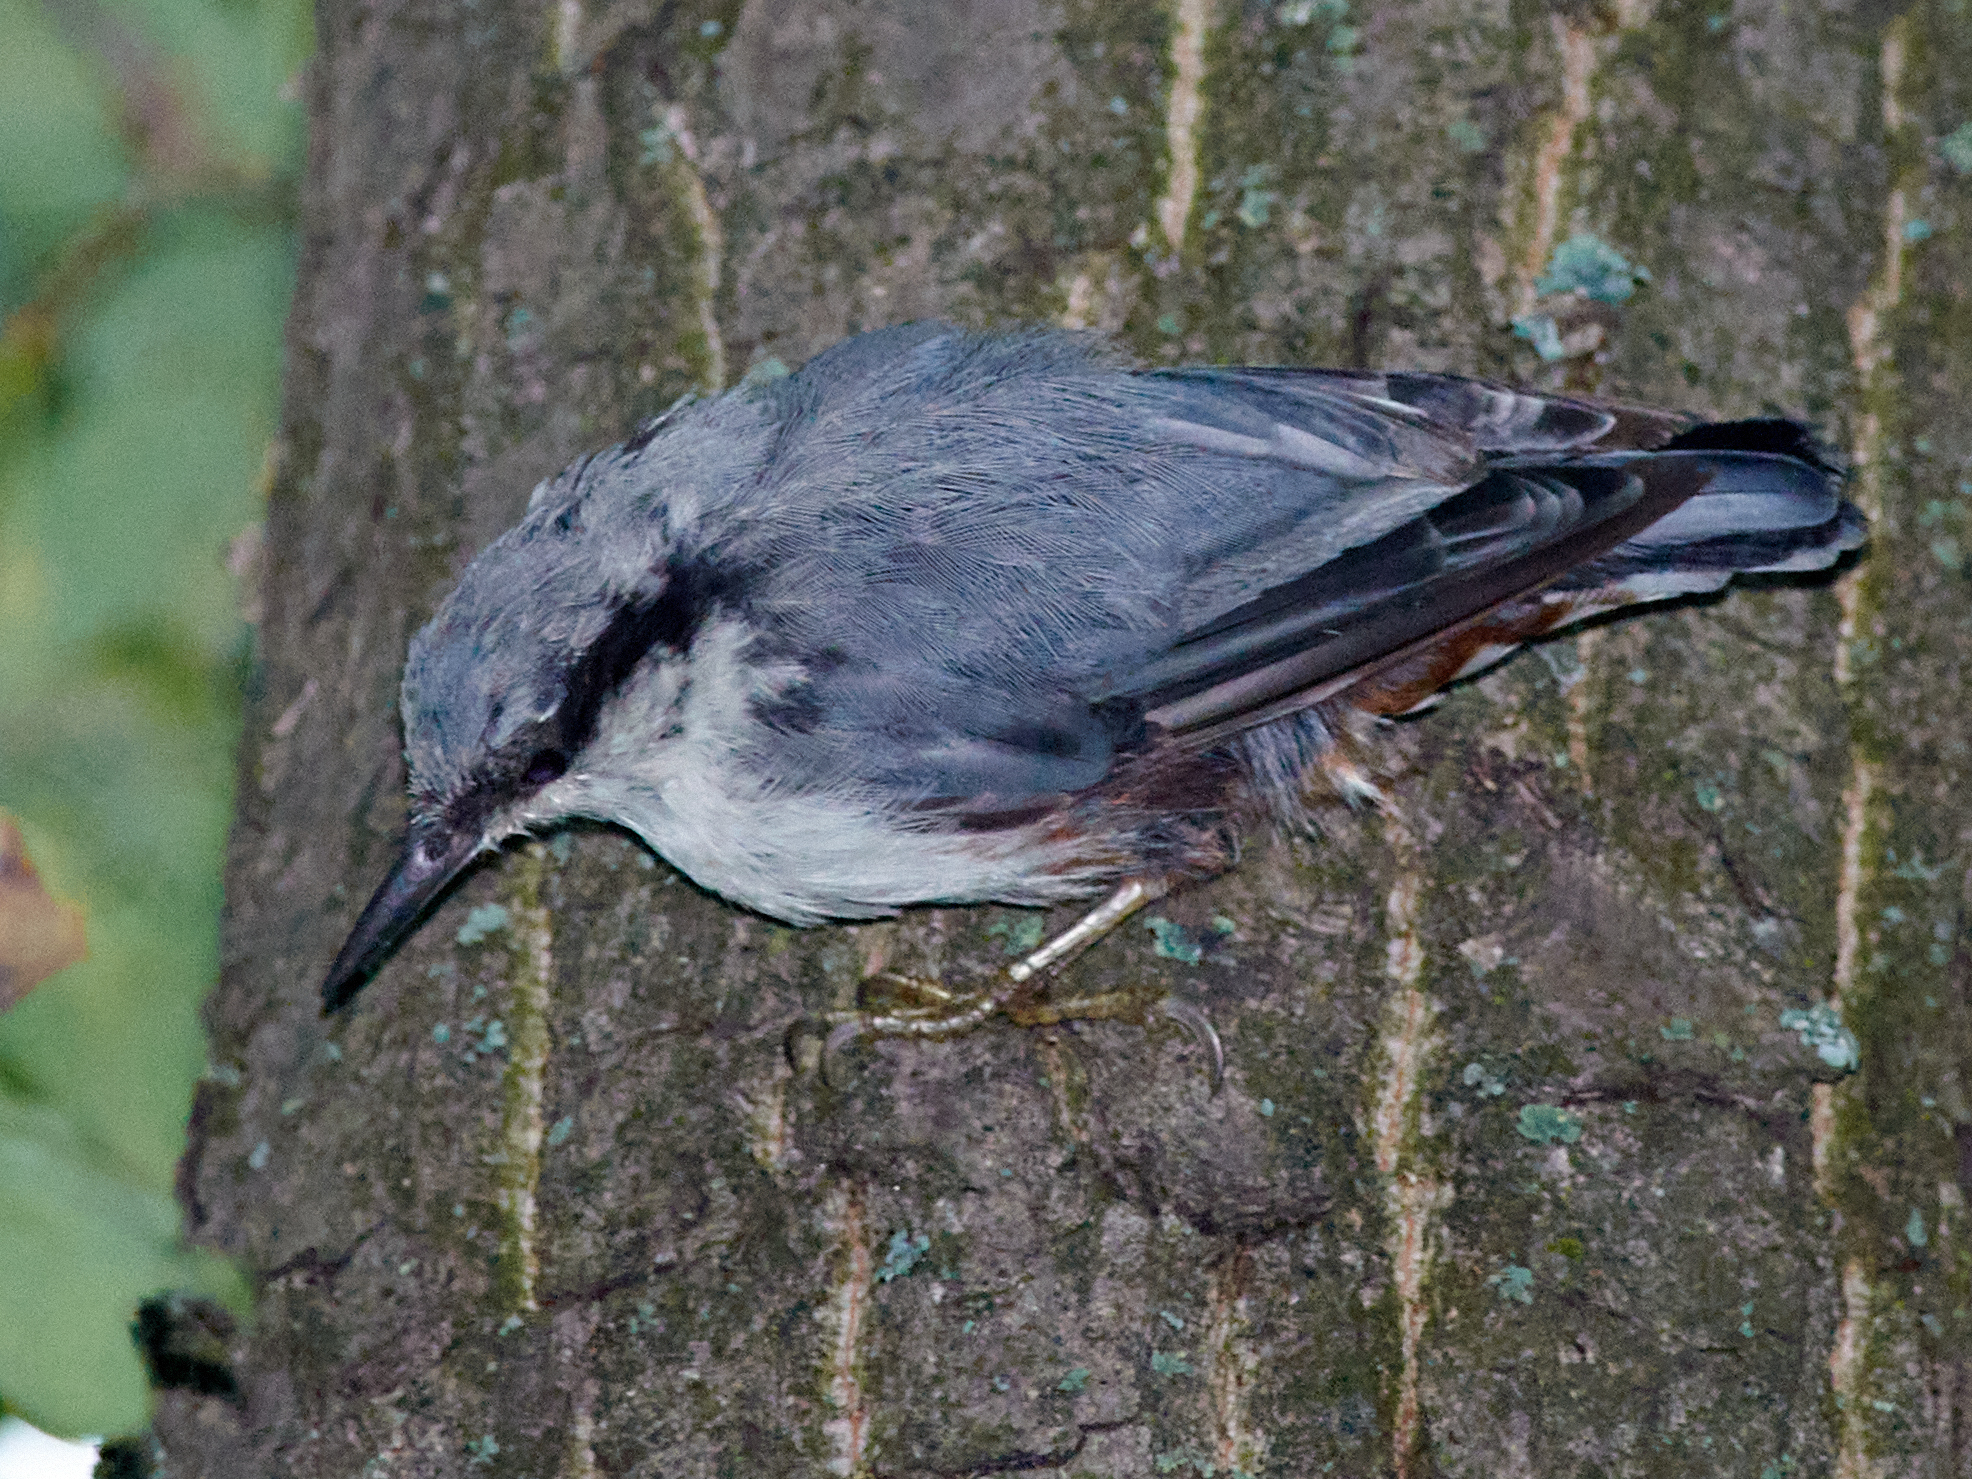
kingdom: Animalia
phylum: Chordata
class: Aves
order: Passeriformes
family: Sittidae
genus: Sitta
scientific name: Sitta europaea
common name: Eurasian nuthatch
